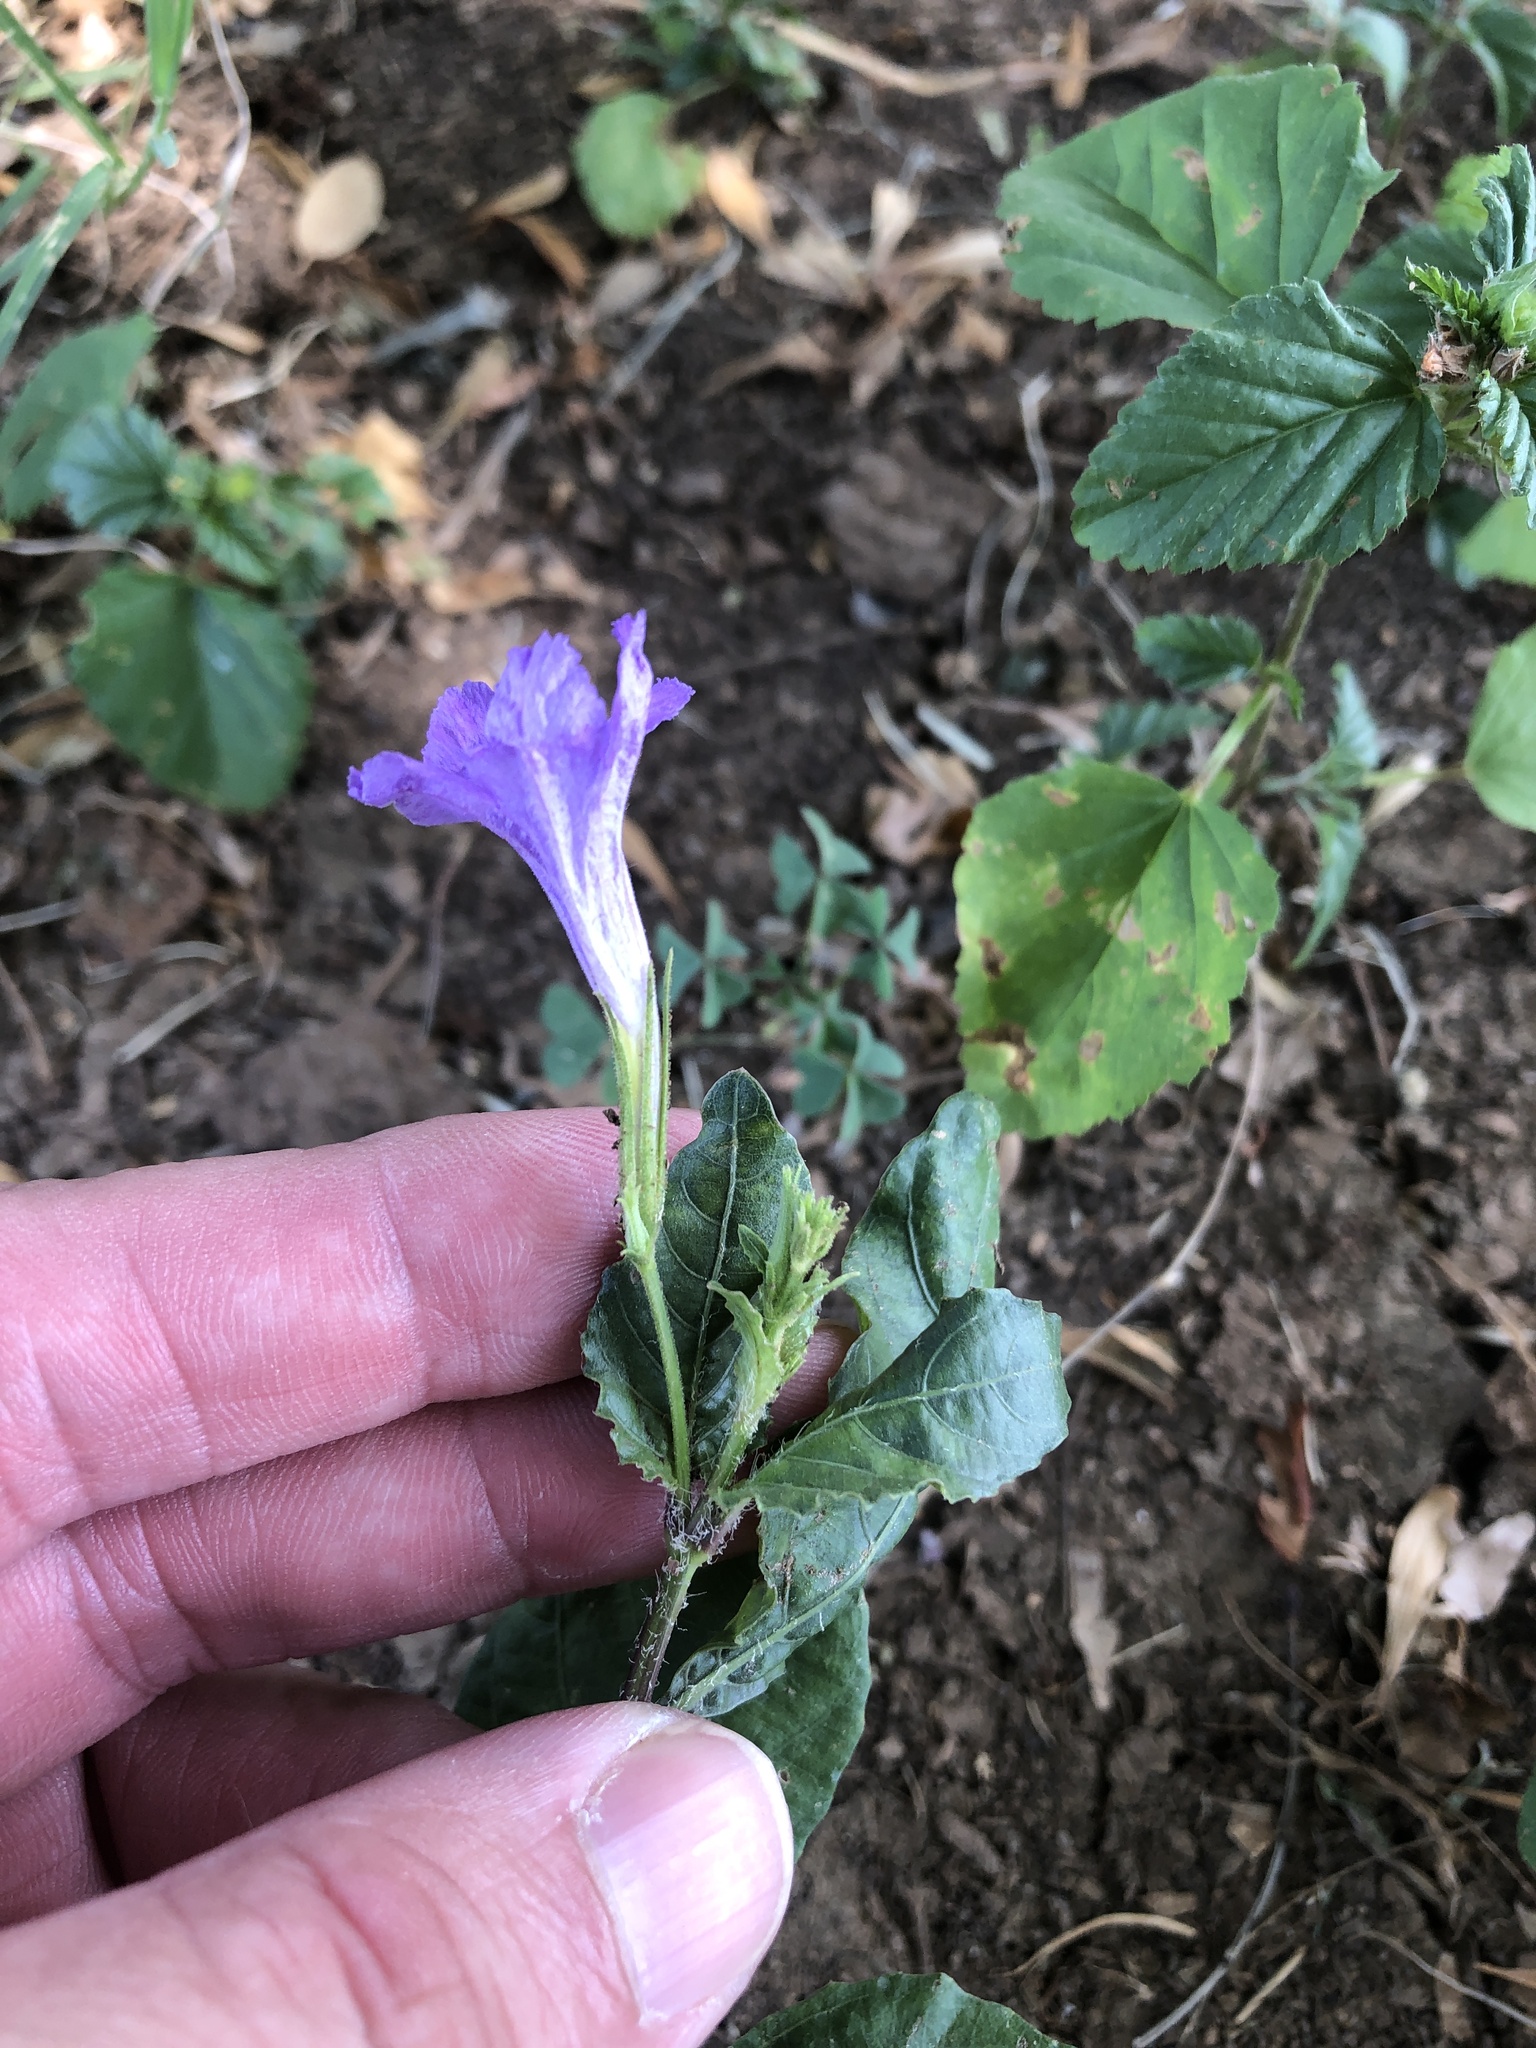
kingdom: Plantae
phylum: Tracheophyta
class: Magnoliopsida
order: Lamiales
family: Acanthaceae
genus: Ruellia
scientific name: Ruellia ciliatiflora
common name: Hairyflower wild petunia
